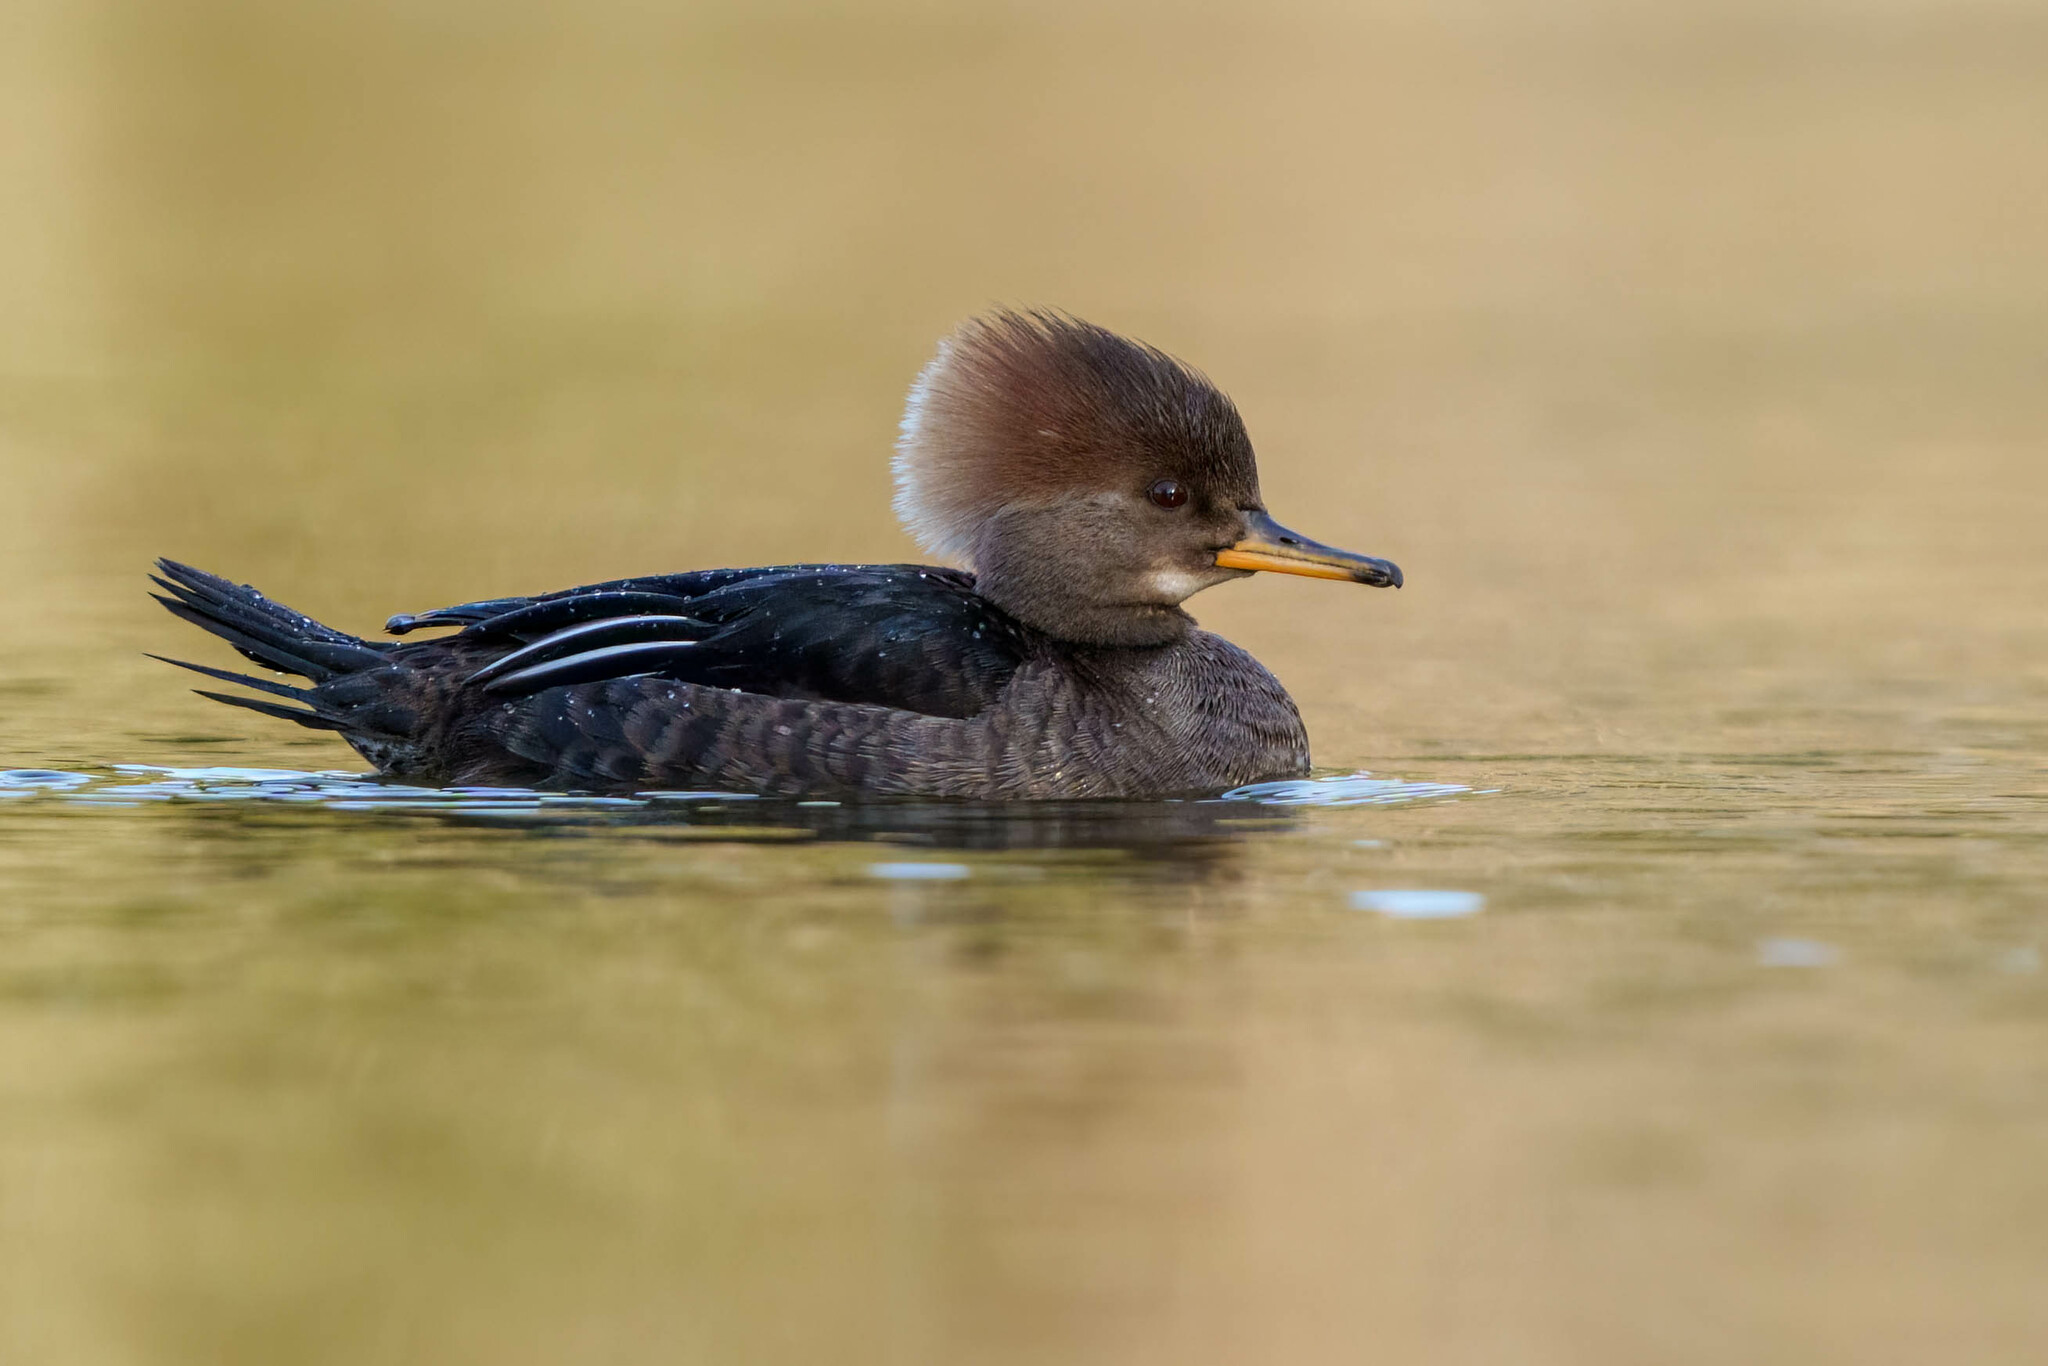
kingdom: Animalia
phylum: Chordata
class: Aves
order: Anseriformes
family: Anatidae
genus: Lophodytes
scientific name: Lophodytes cucullatus
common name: Hooded merganser
